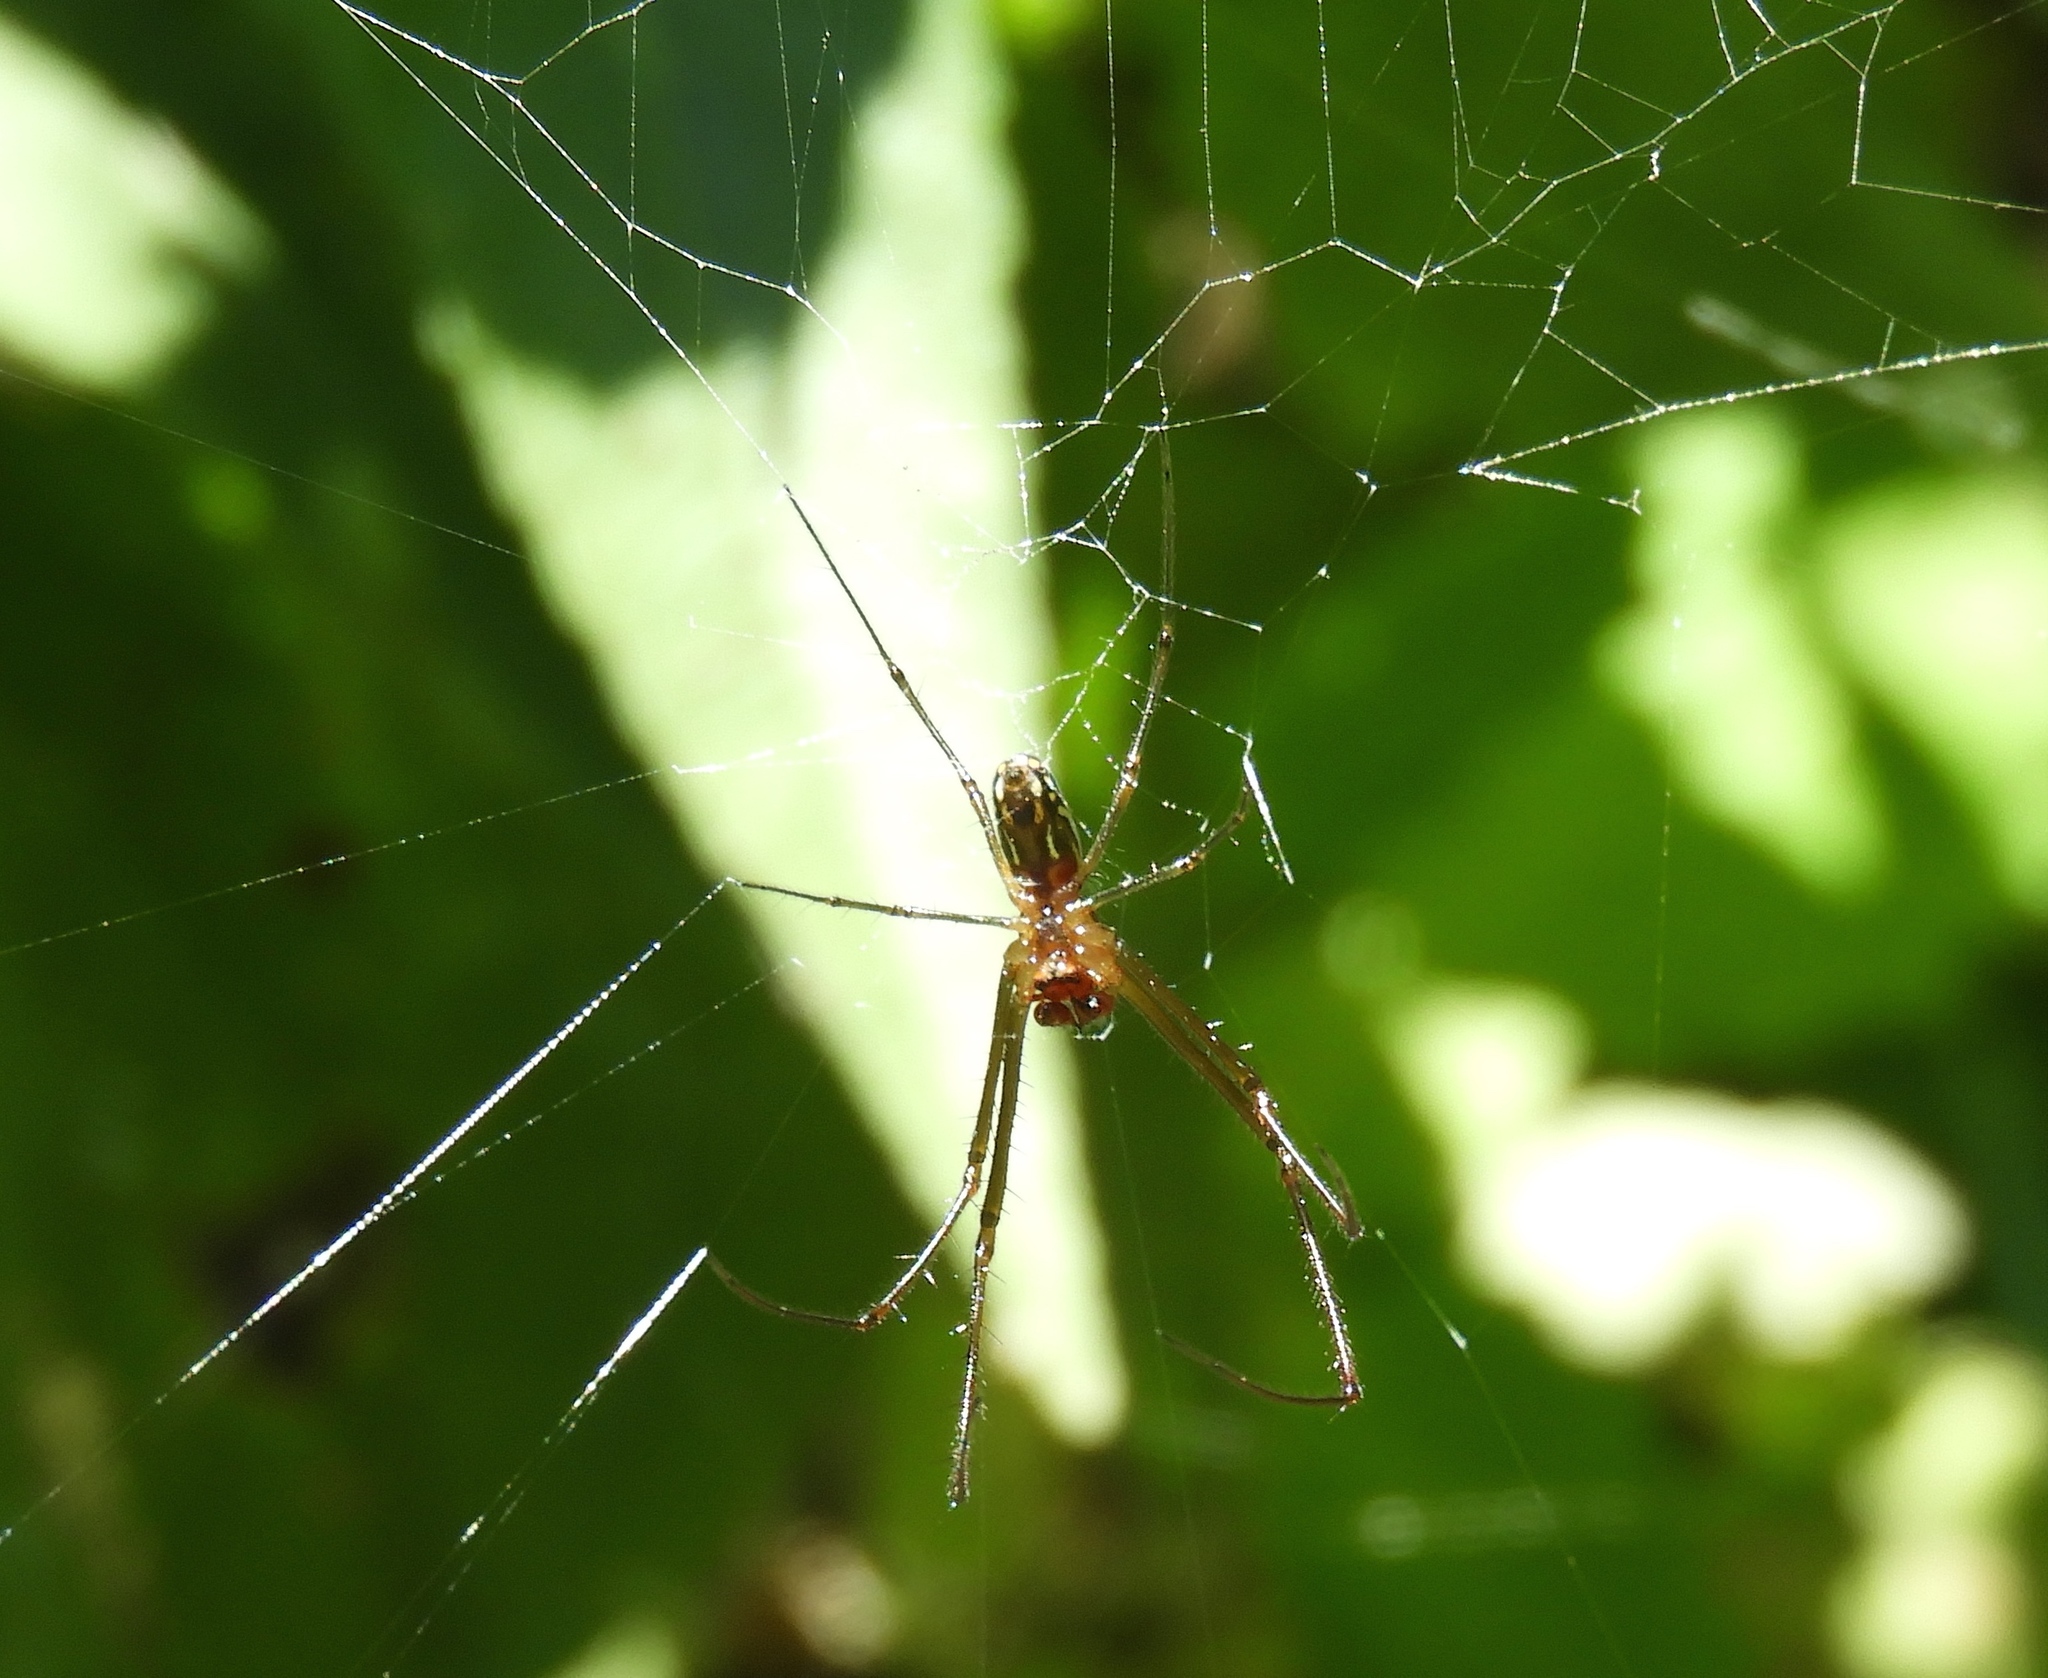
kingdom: Animalia
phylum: Arthropoda
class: Arachnida
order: Araneae
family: Tetragnathidae
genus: Leucauge
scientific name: Leucauge
